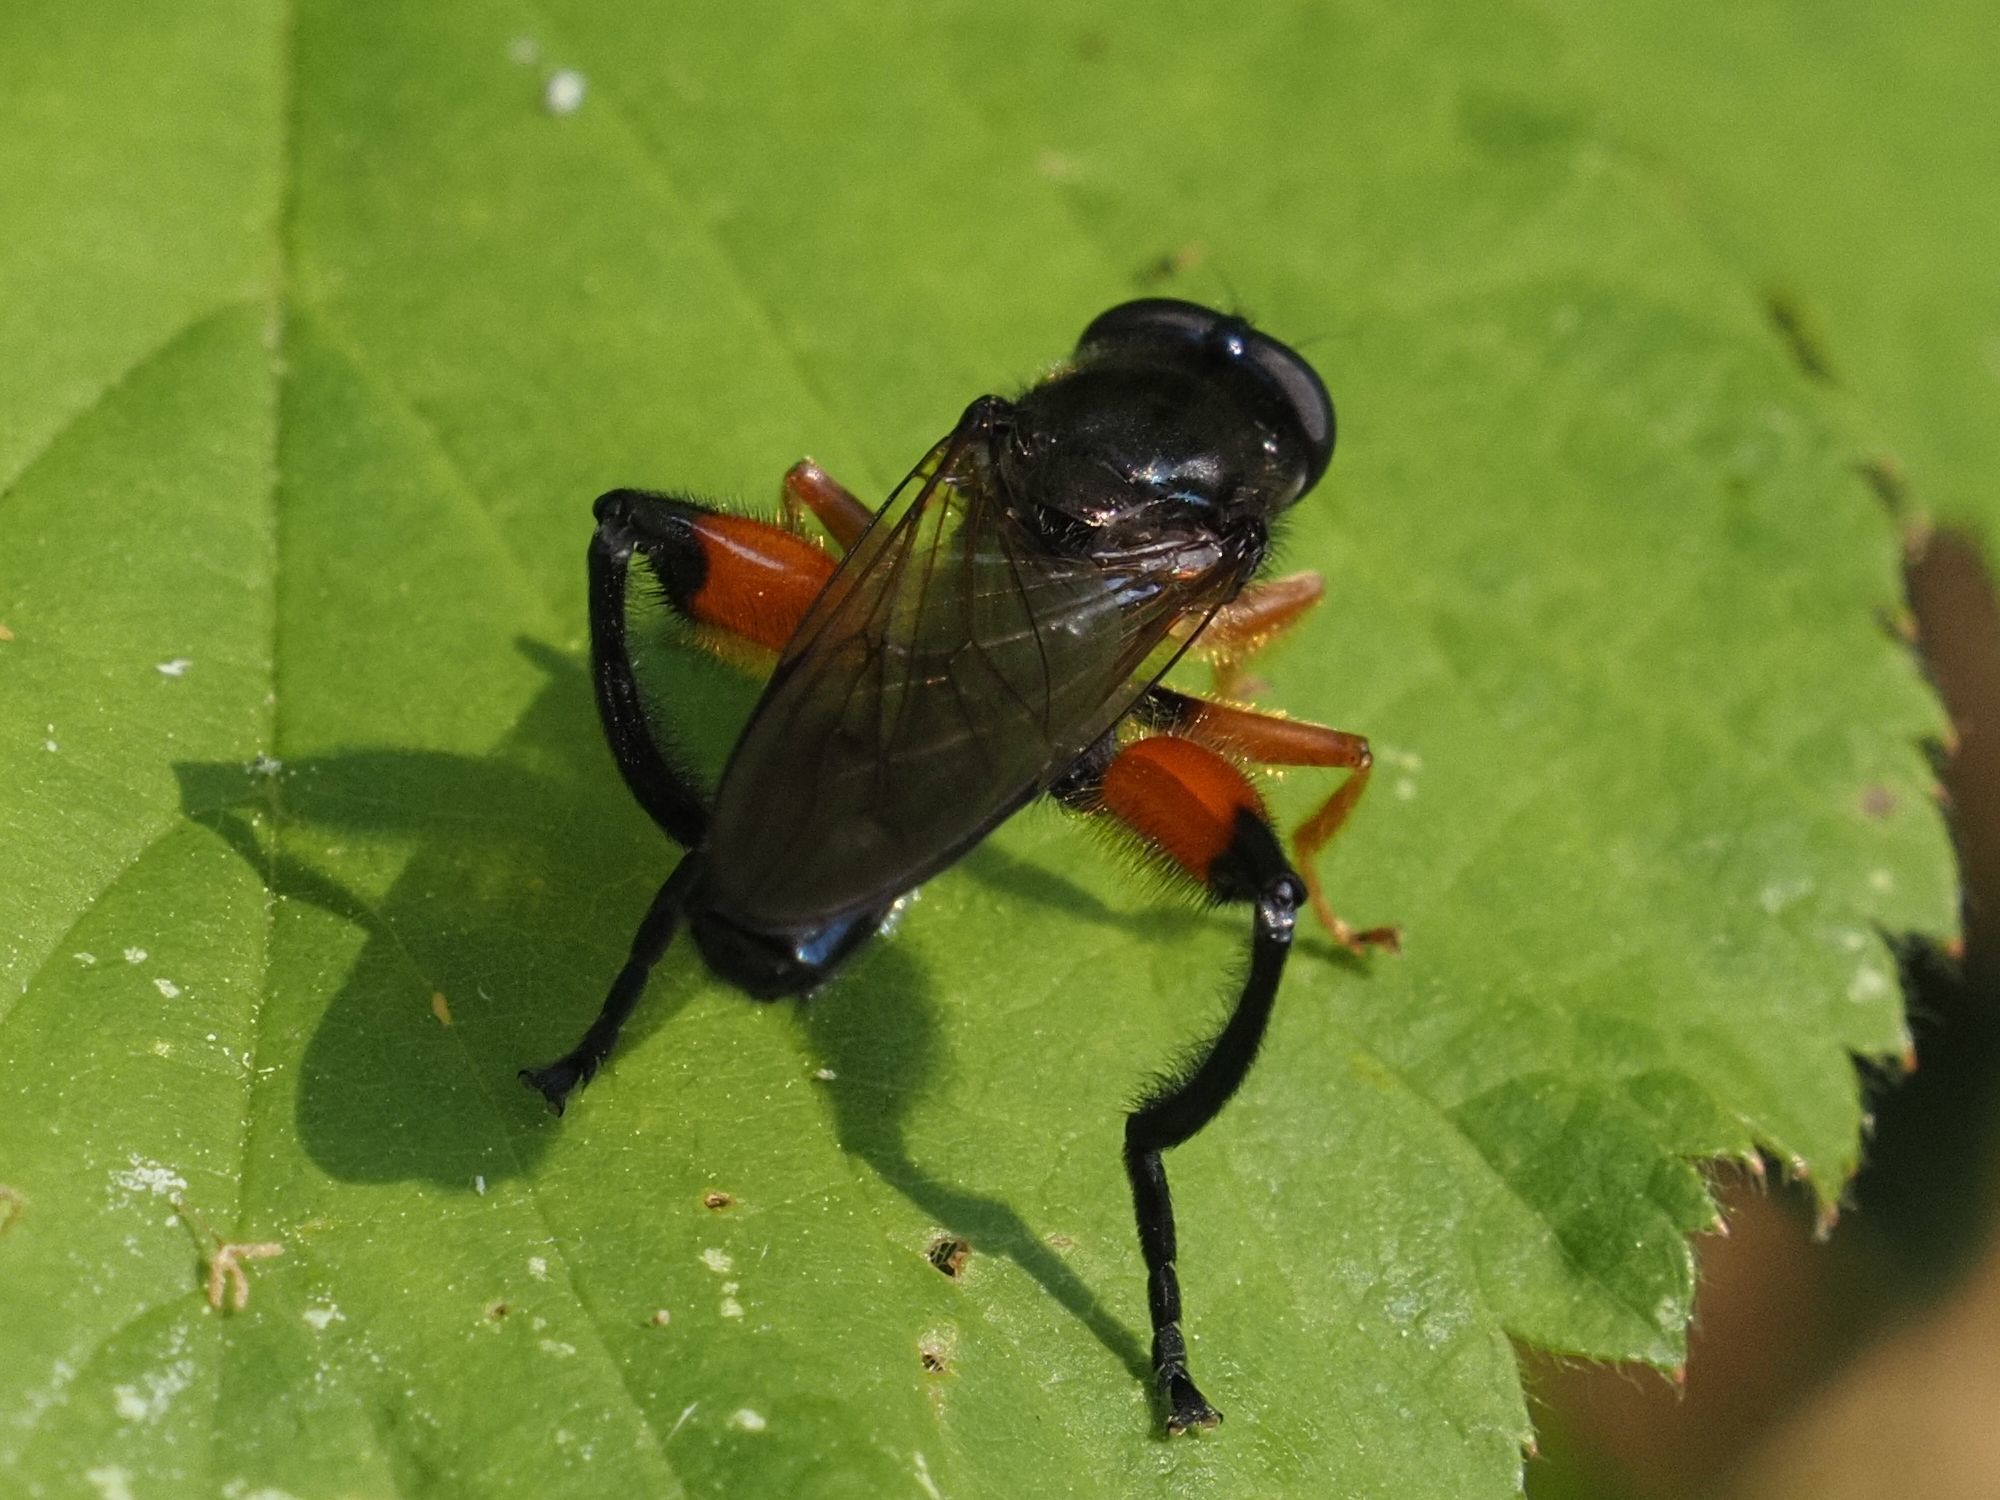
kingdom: Animalia
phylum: Arthropoda
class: Insecta
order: Diptera
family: Syrphidae
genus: Chalcosyrphus
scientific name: Chalcosyrphus femoratus
